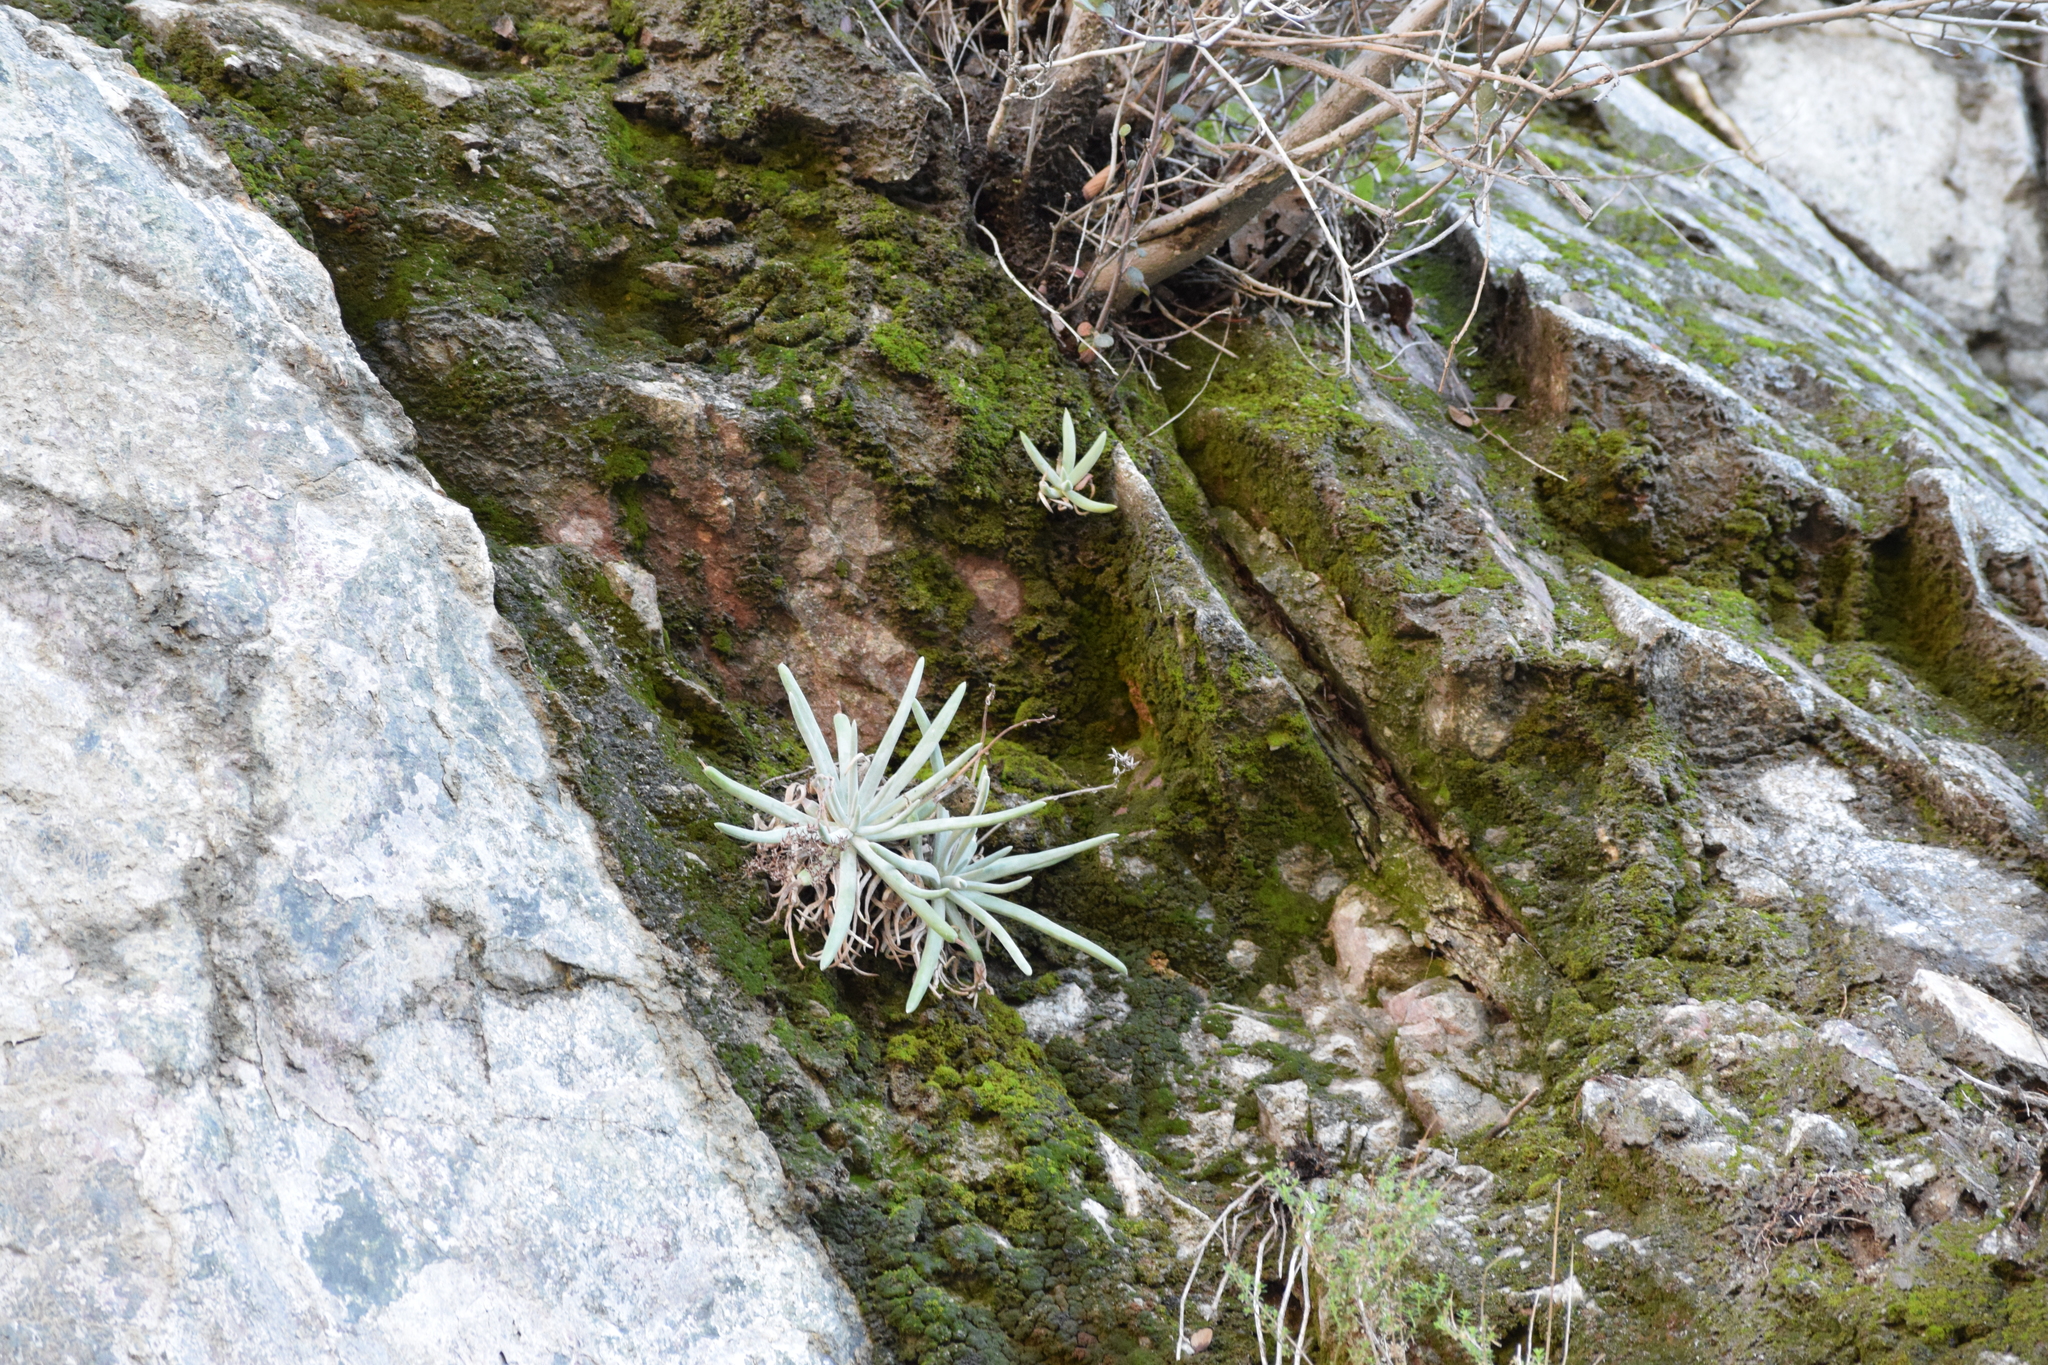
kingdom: Plantae
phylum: Tracheophyta
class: Magnoliopsida
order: Saxifragales
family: Crassulaceae
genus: Dudleya
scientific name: Dudleya densiflora
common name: San gabriel mountains dudleya
